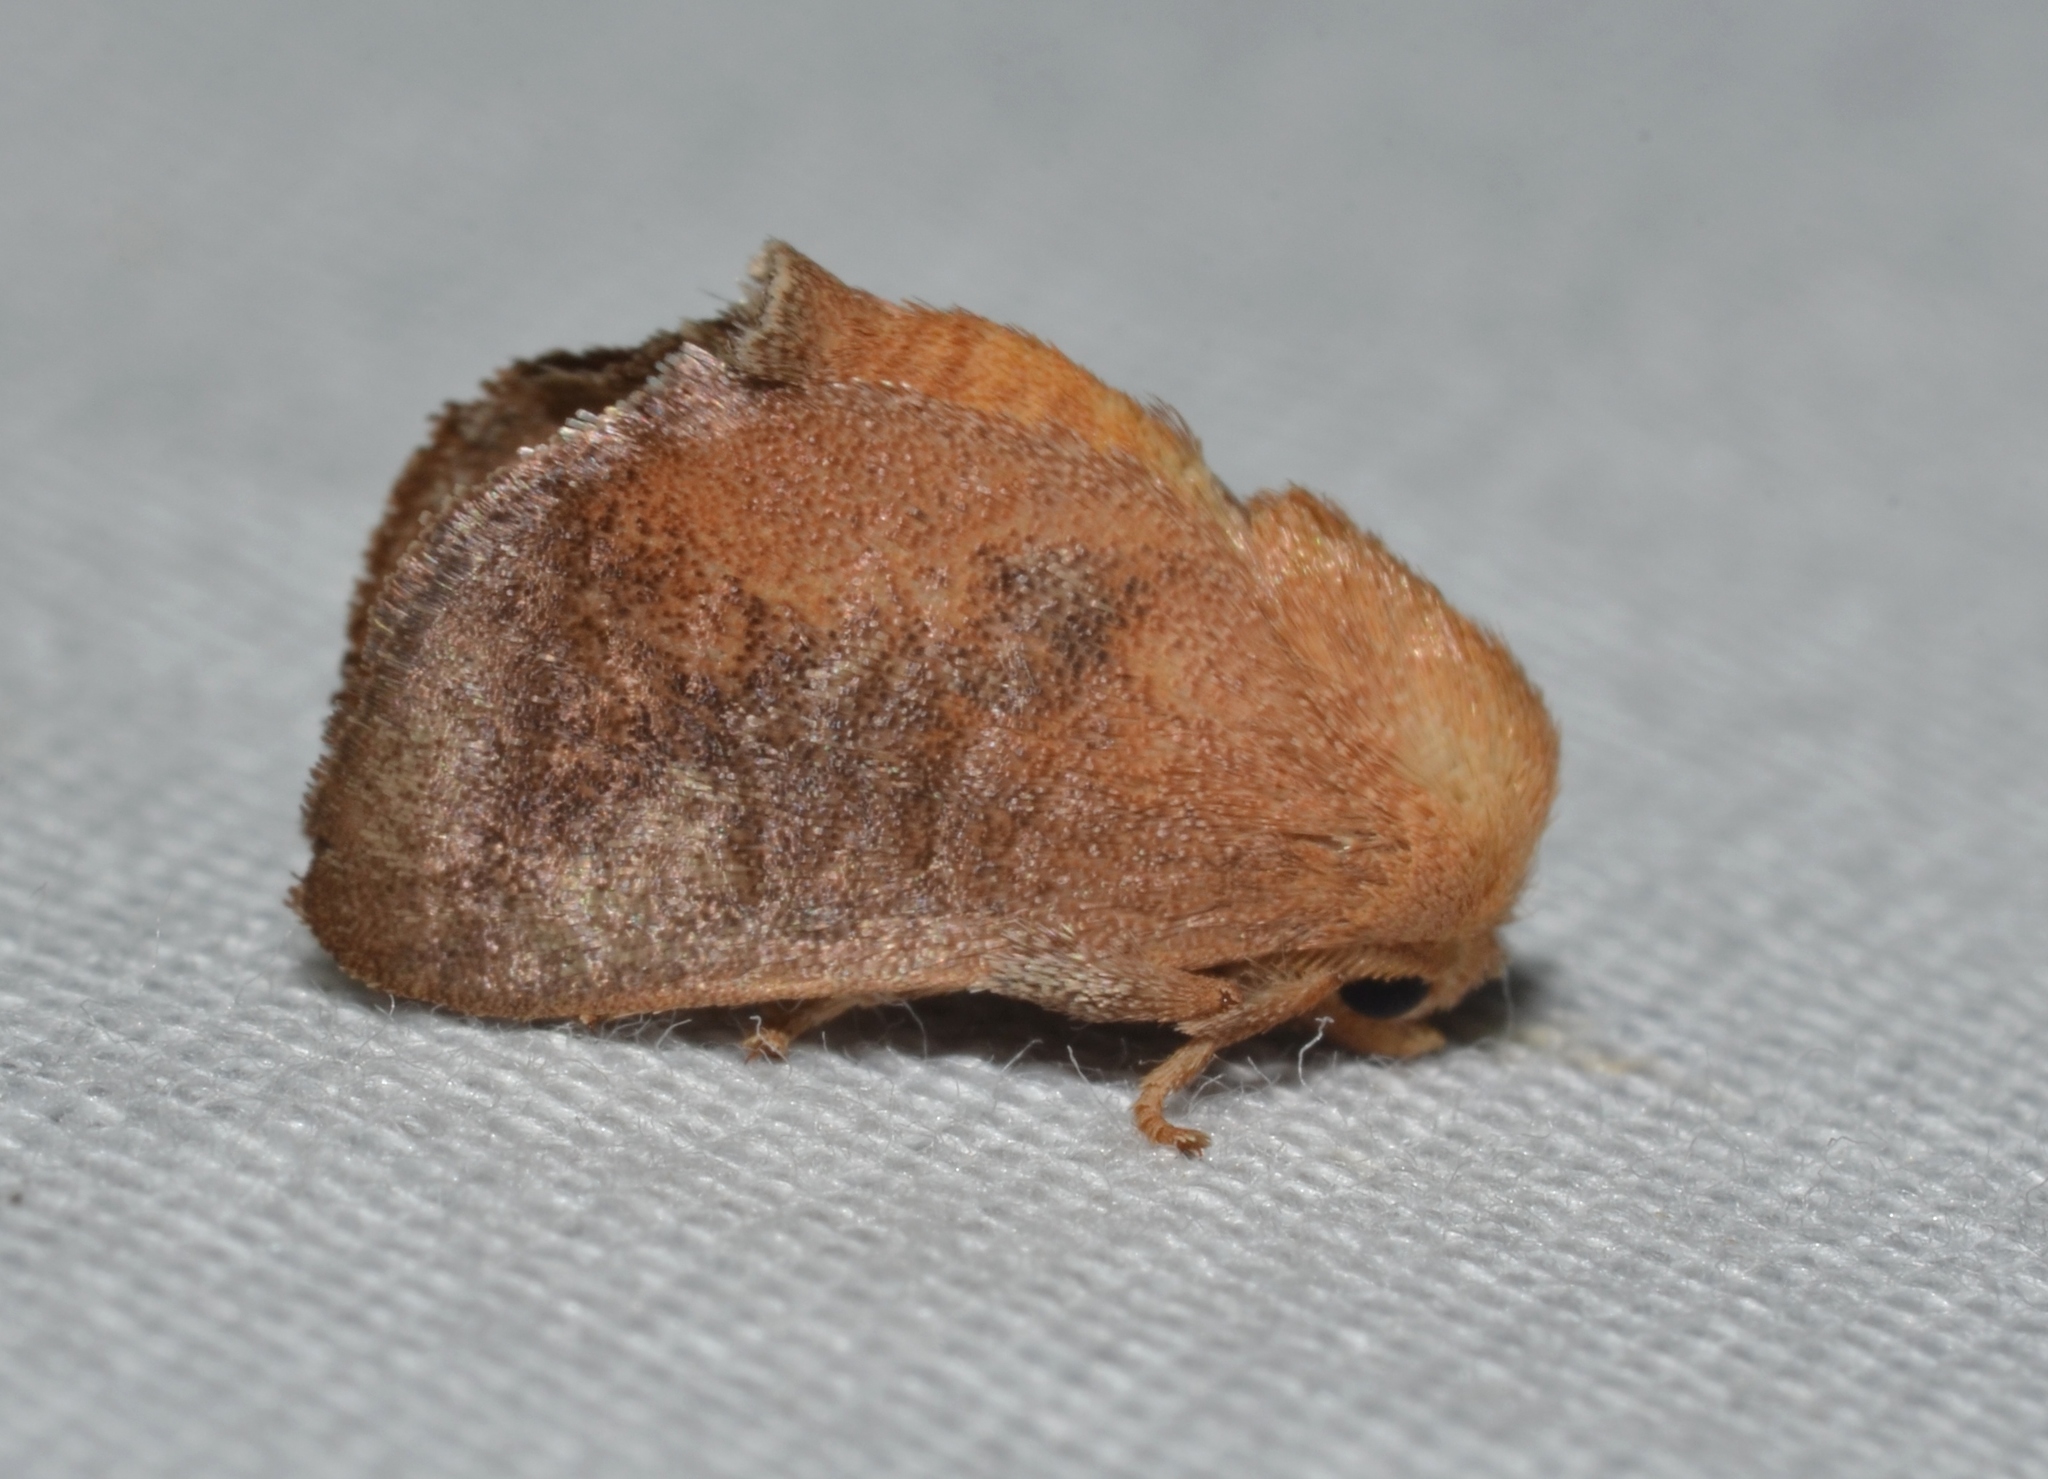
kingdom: Animalia
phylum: Arthropoda
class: Insecta
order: Lepidoptera
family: Limacodidae
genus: Isa
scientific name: Isa textula
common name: Crowned slug moth
